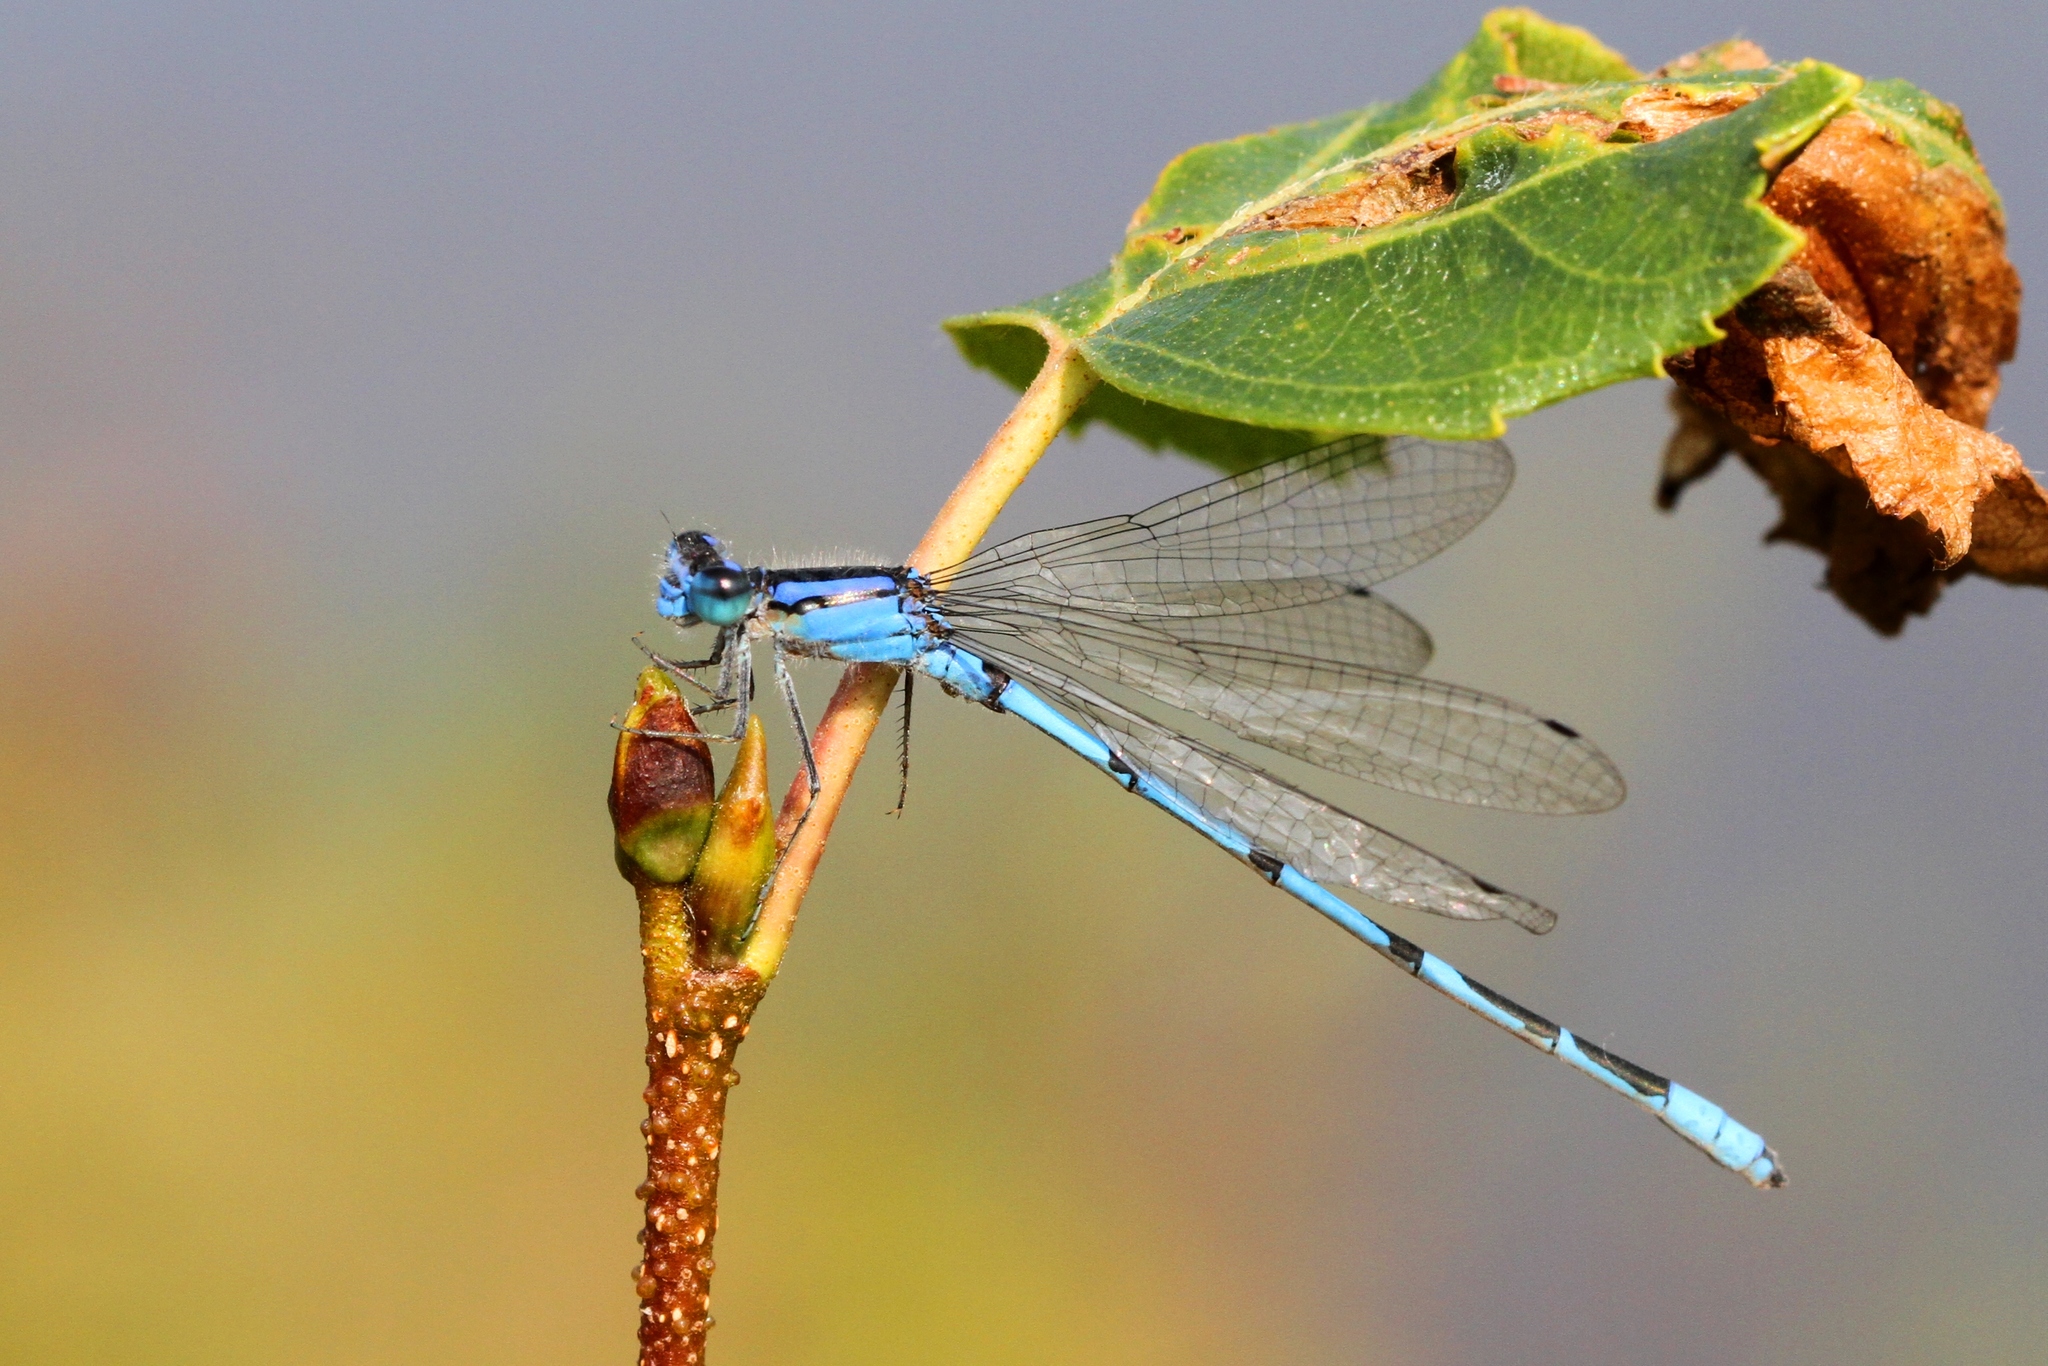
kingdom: Animalia
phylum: Arthropoda
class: Insecta
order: Odonata
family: Coenagrionidae
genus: Enallagma
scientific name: Enallagma civile
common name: Damselfly
